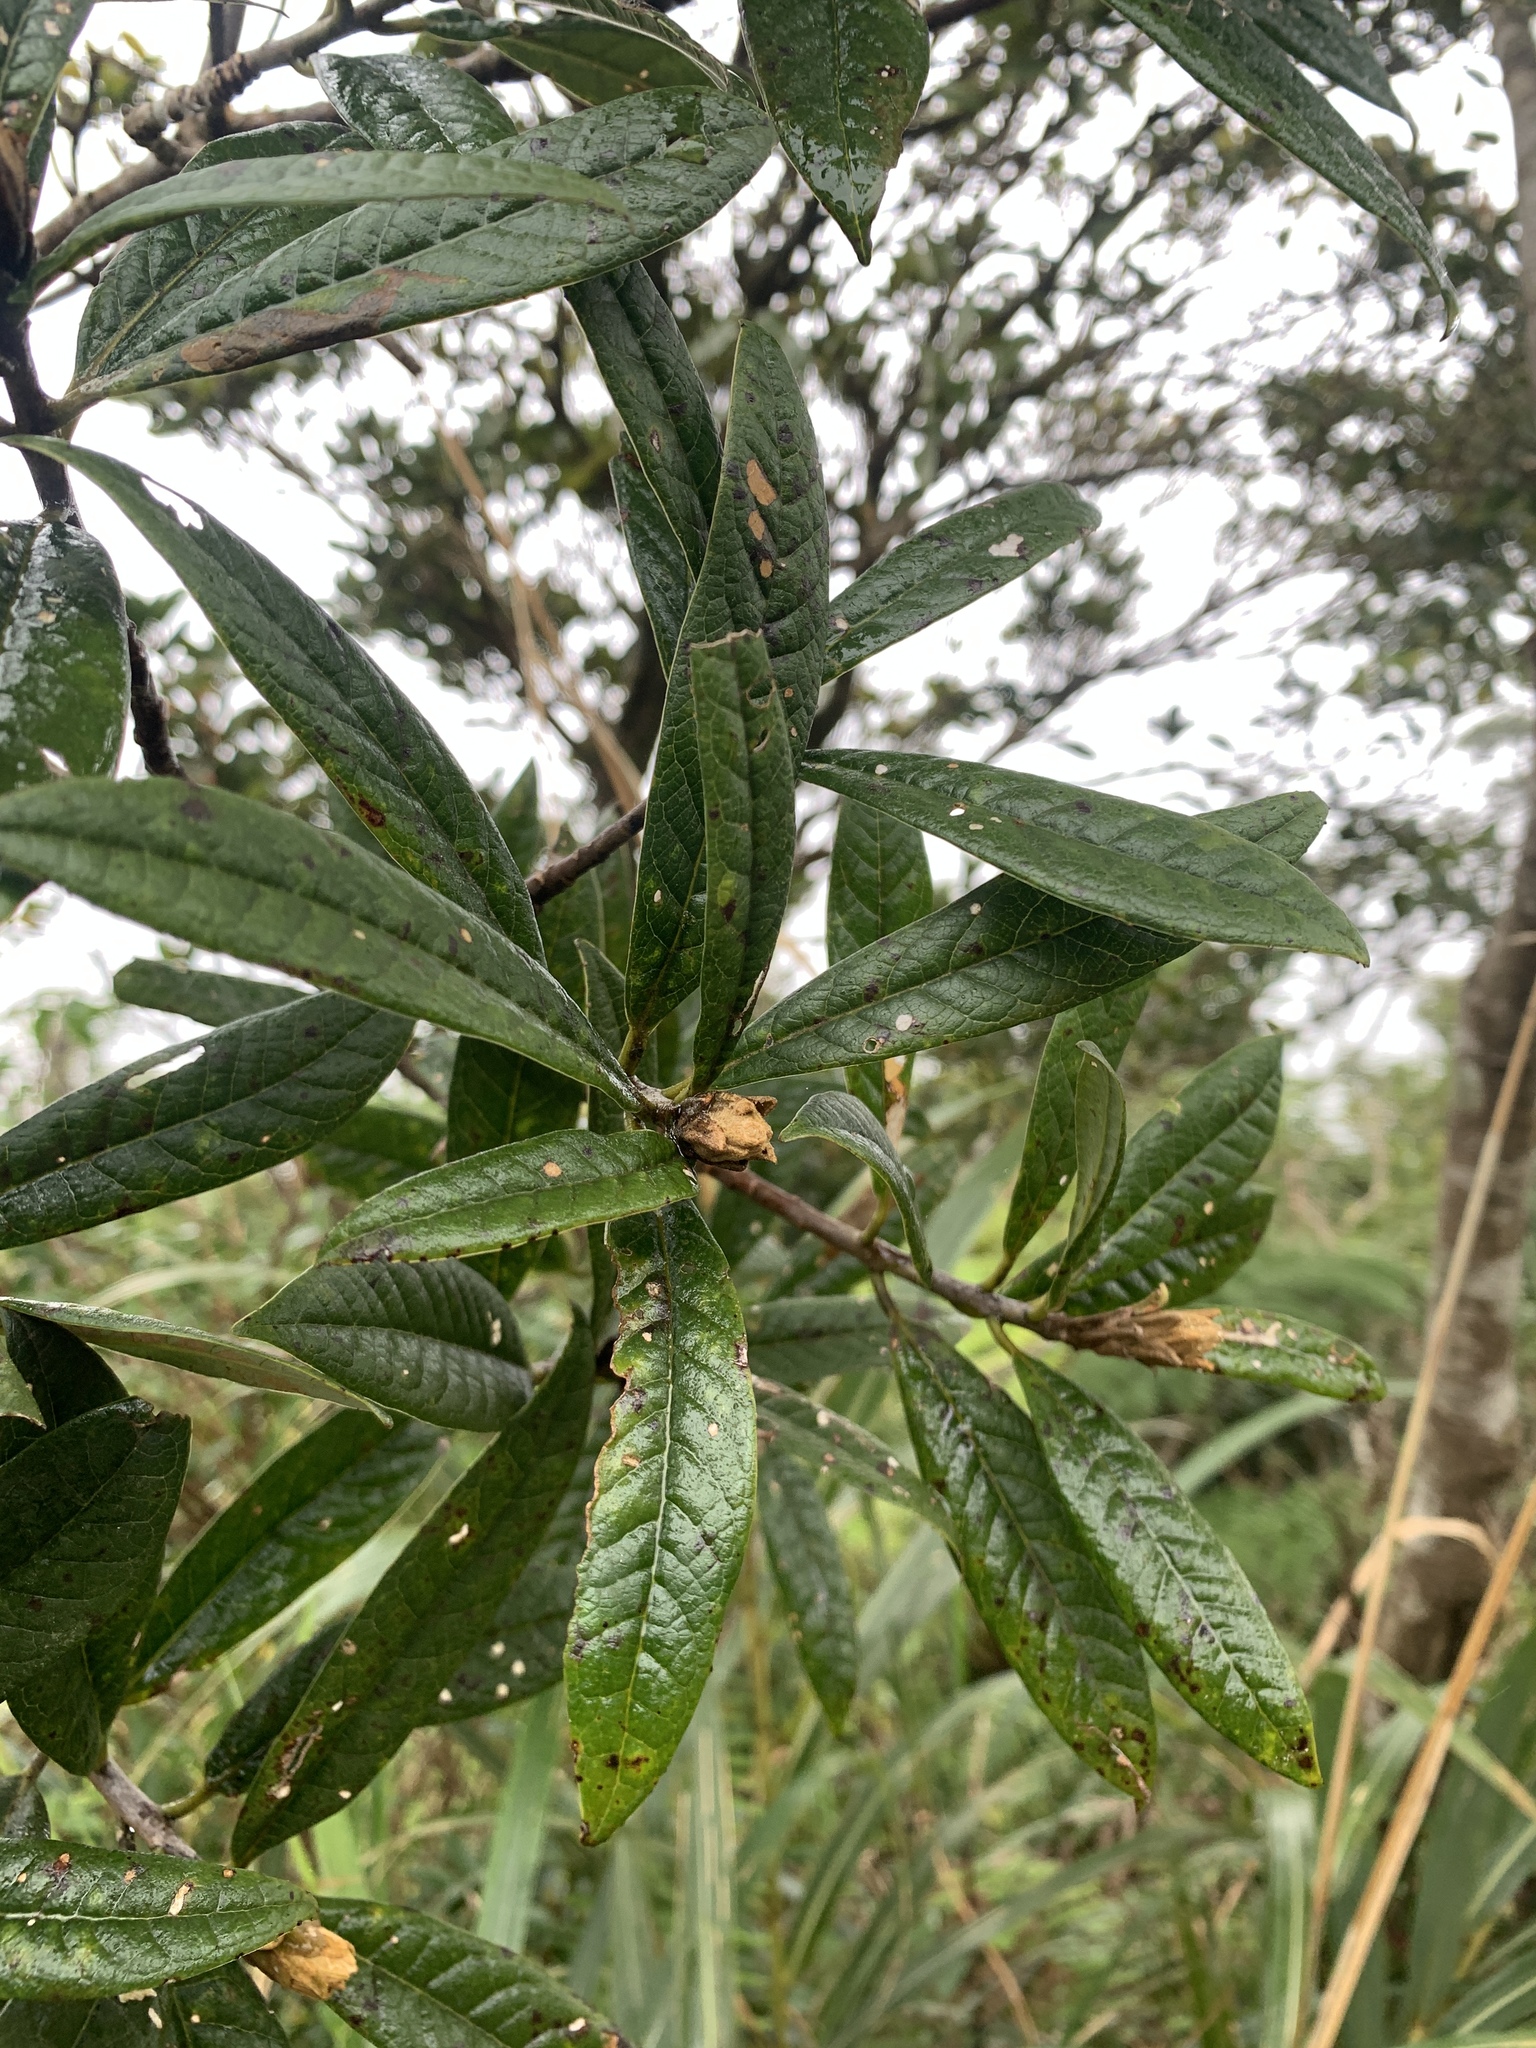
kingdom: Plantae
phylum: Tracheophyta
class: Magnoliopsida
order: Ericales
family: Symplocaceae
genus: Symplocos
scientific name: Symplocos stellaris
